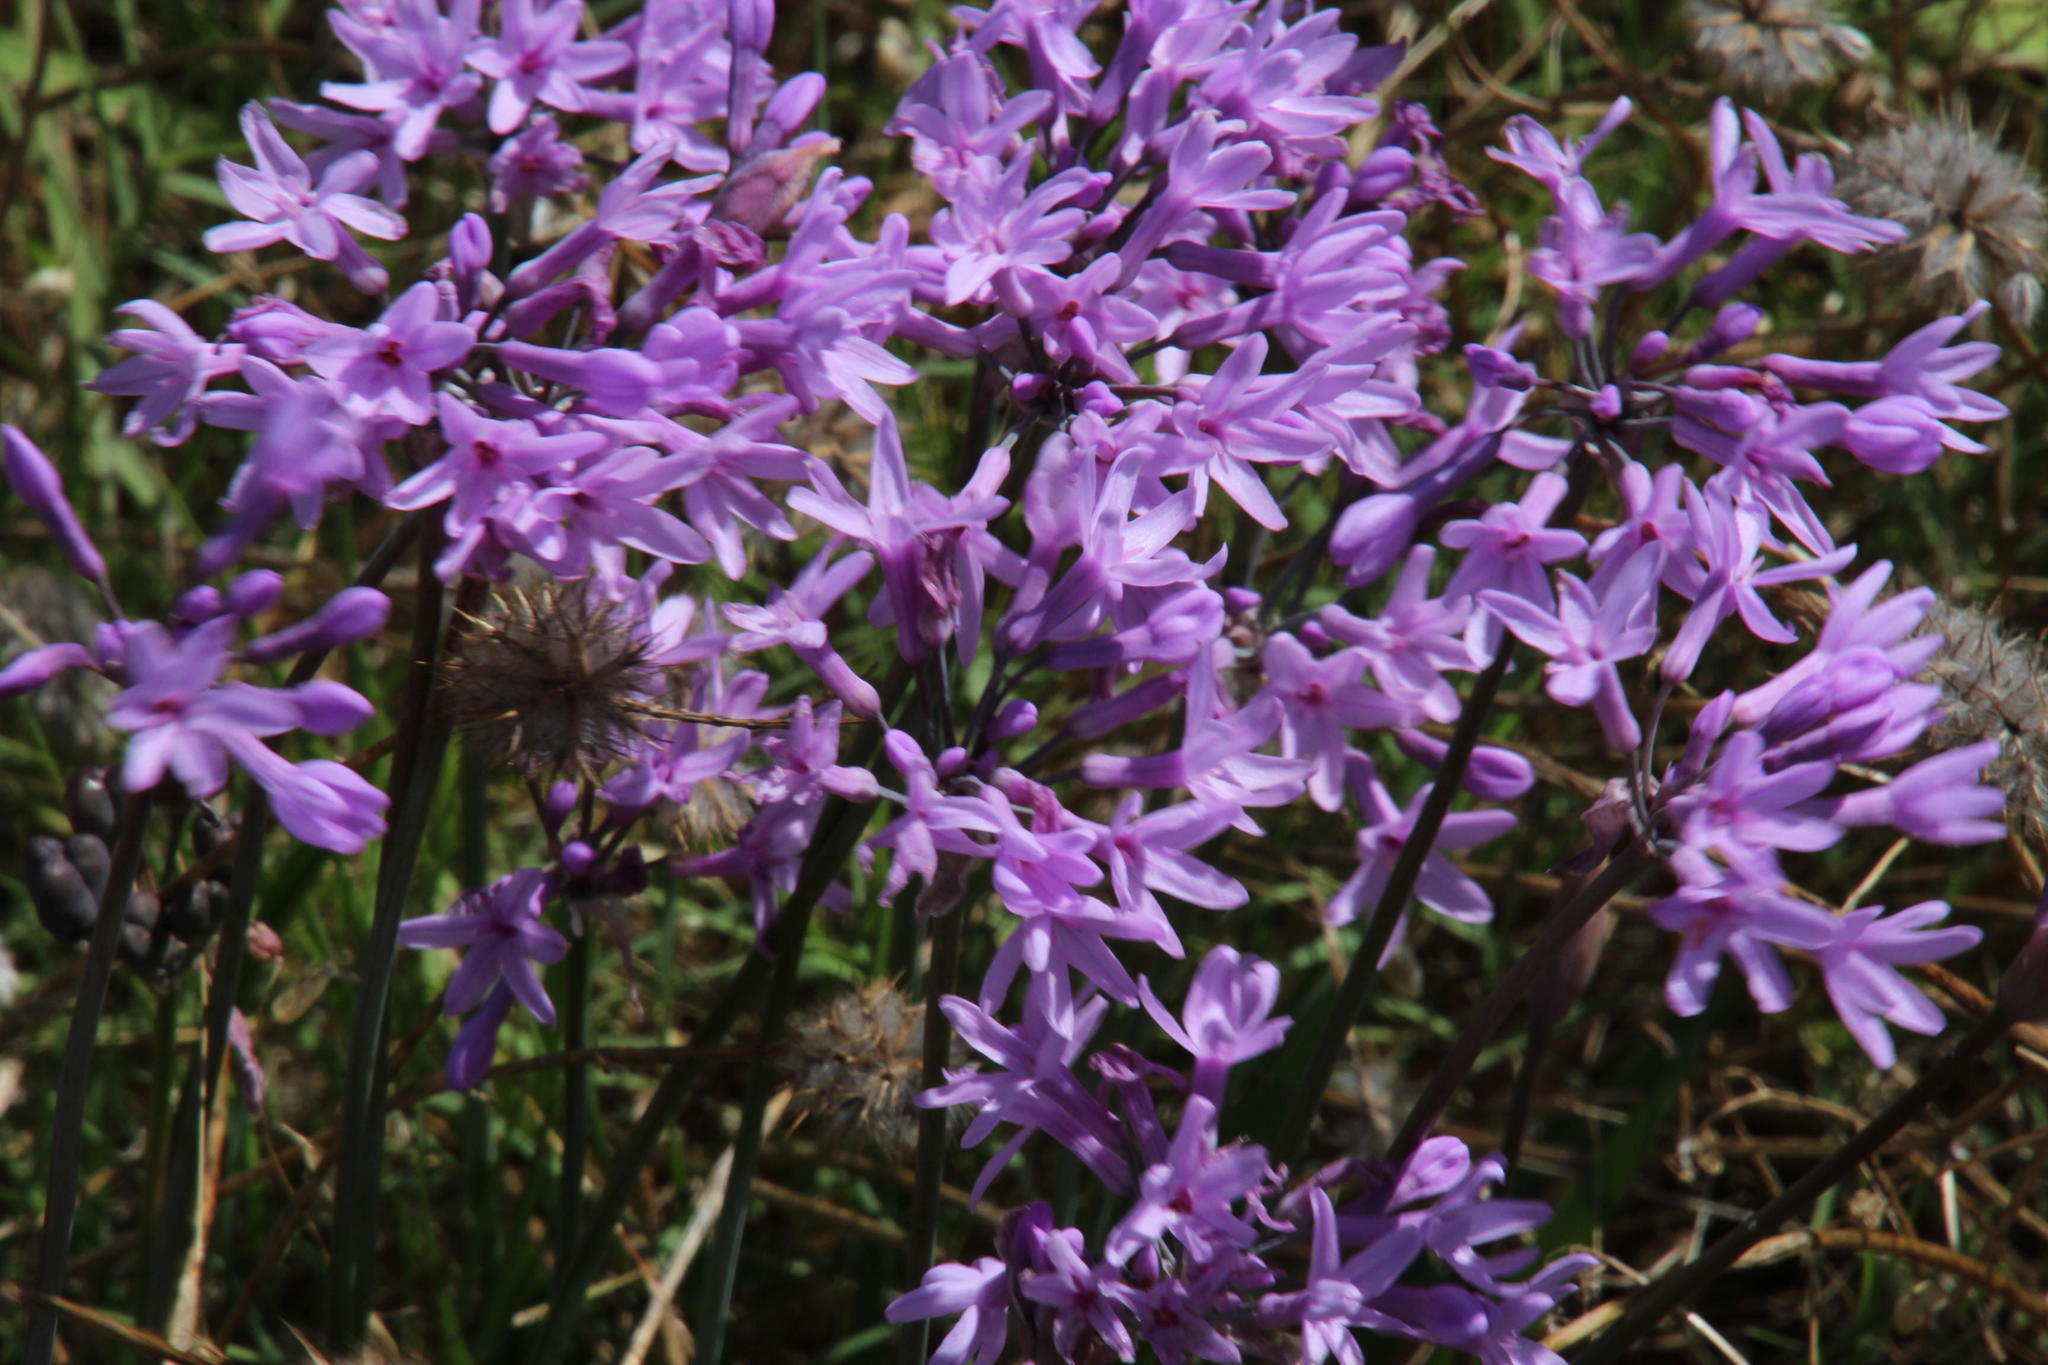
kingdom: Plantae
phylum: Tracheophyta
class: Liliopsida
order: Asparagales
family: Amaryllidaceae
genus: Tulbaghia
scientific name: Tulbaghia violacea
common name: Society garlic
